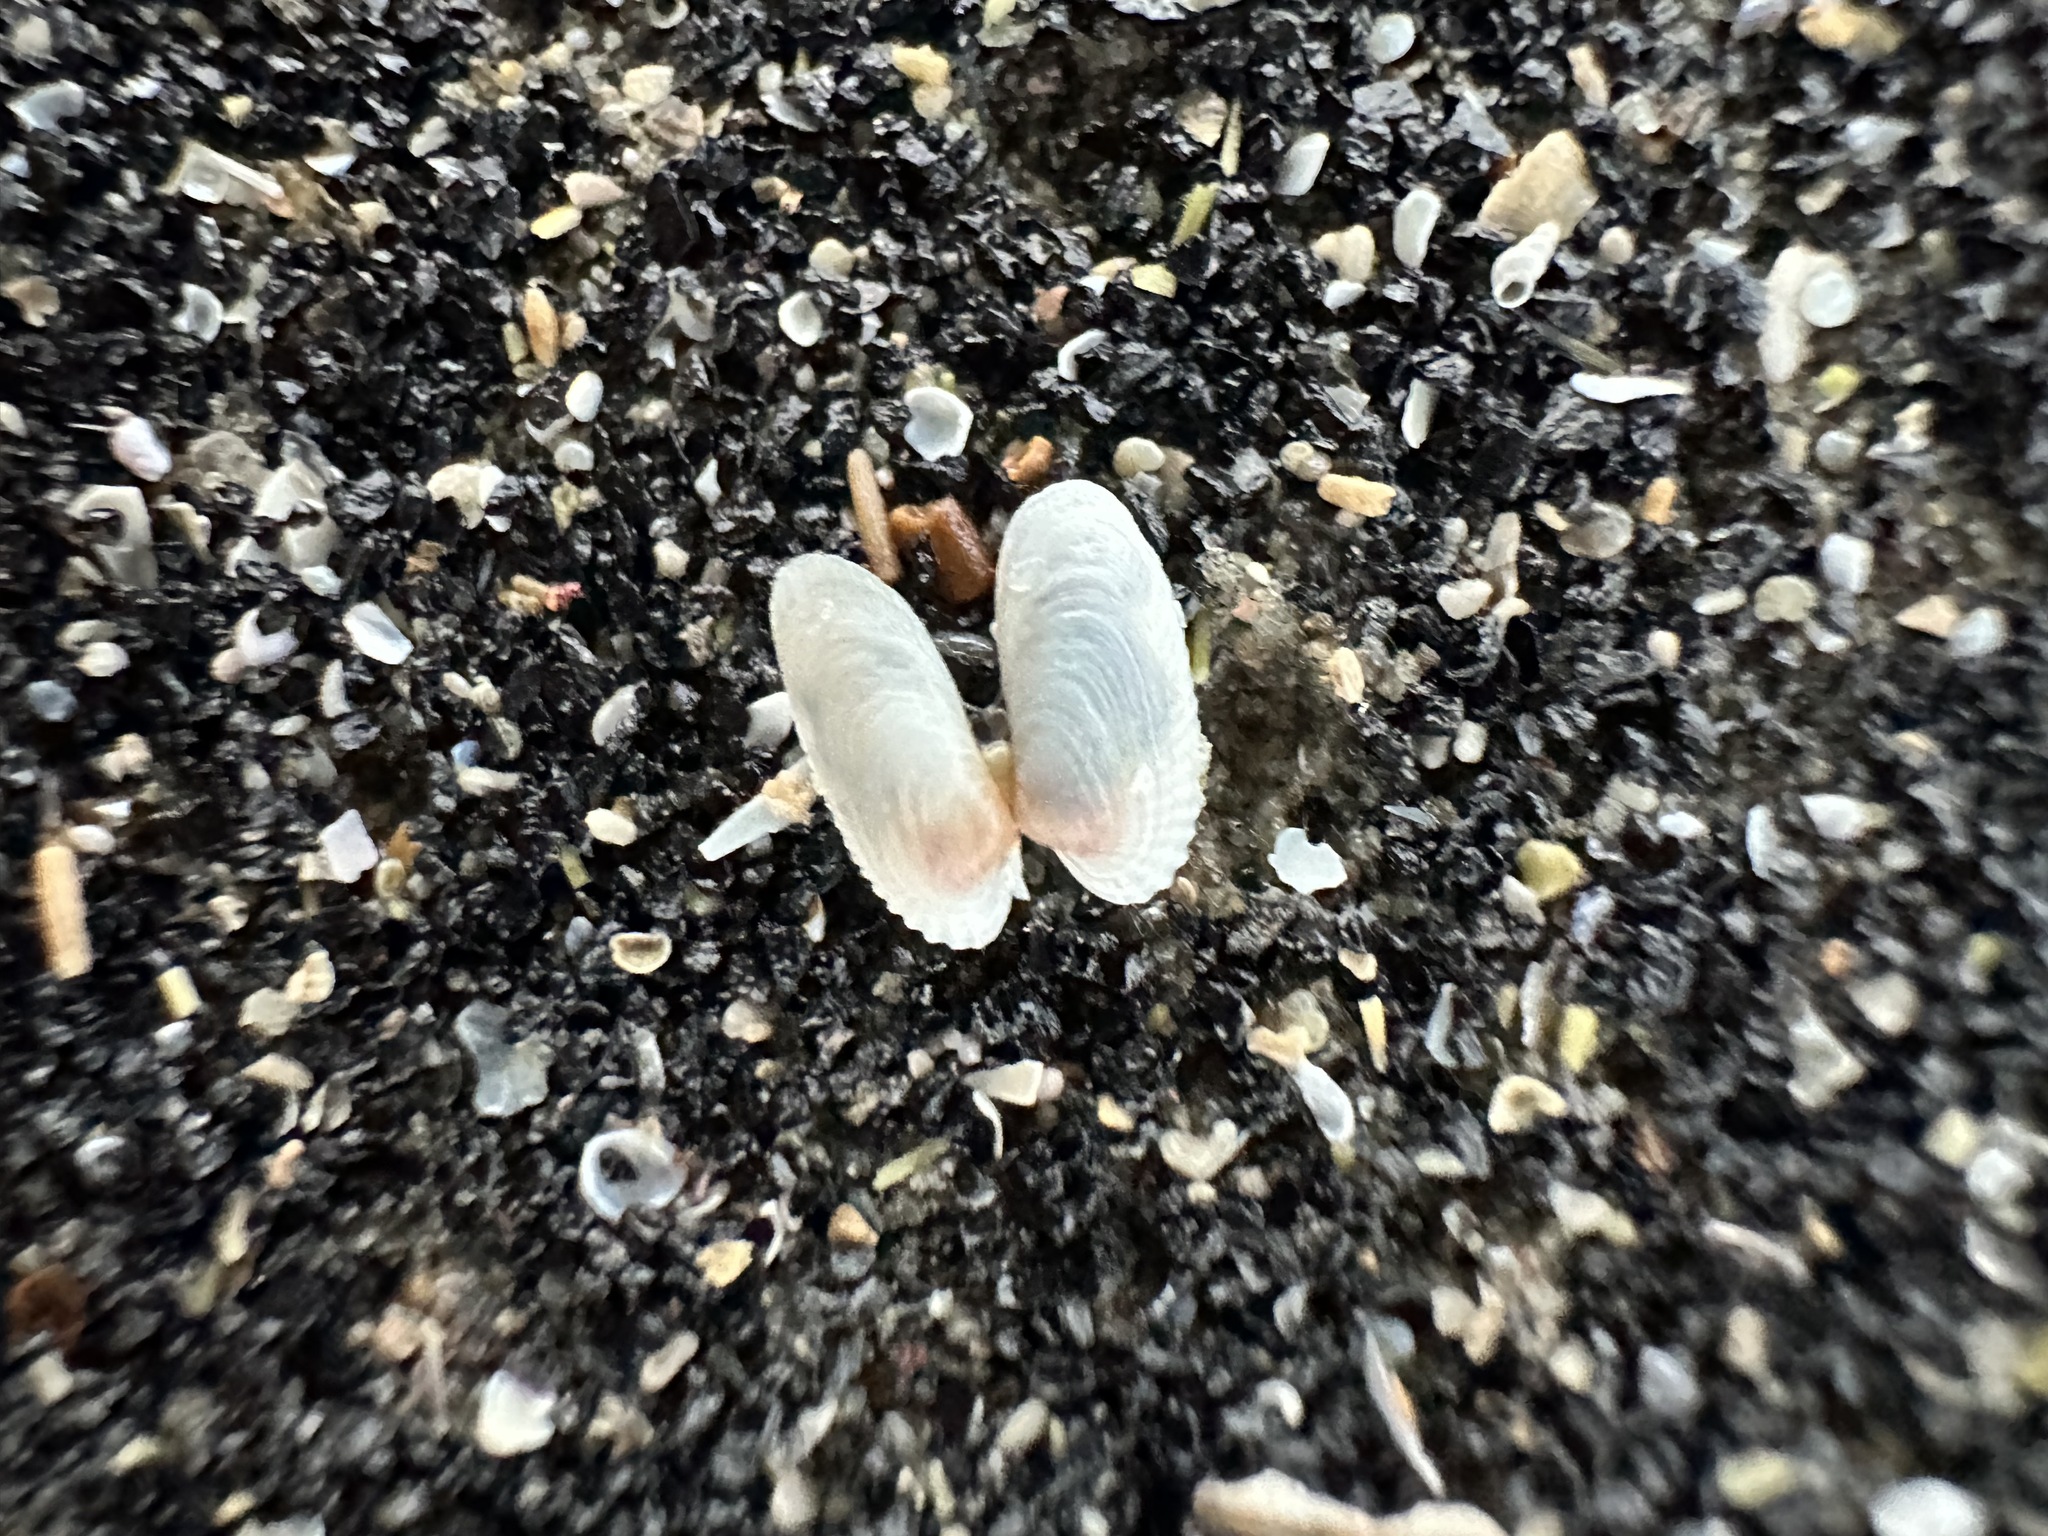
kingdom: Animalia
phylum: Mollusca
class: Bivalvia
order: Venerida
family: Veneridae
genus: Petricolaria
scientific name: Petricolaria pholadiformis
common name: American piddock
